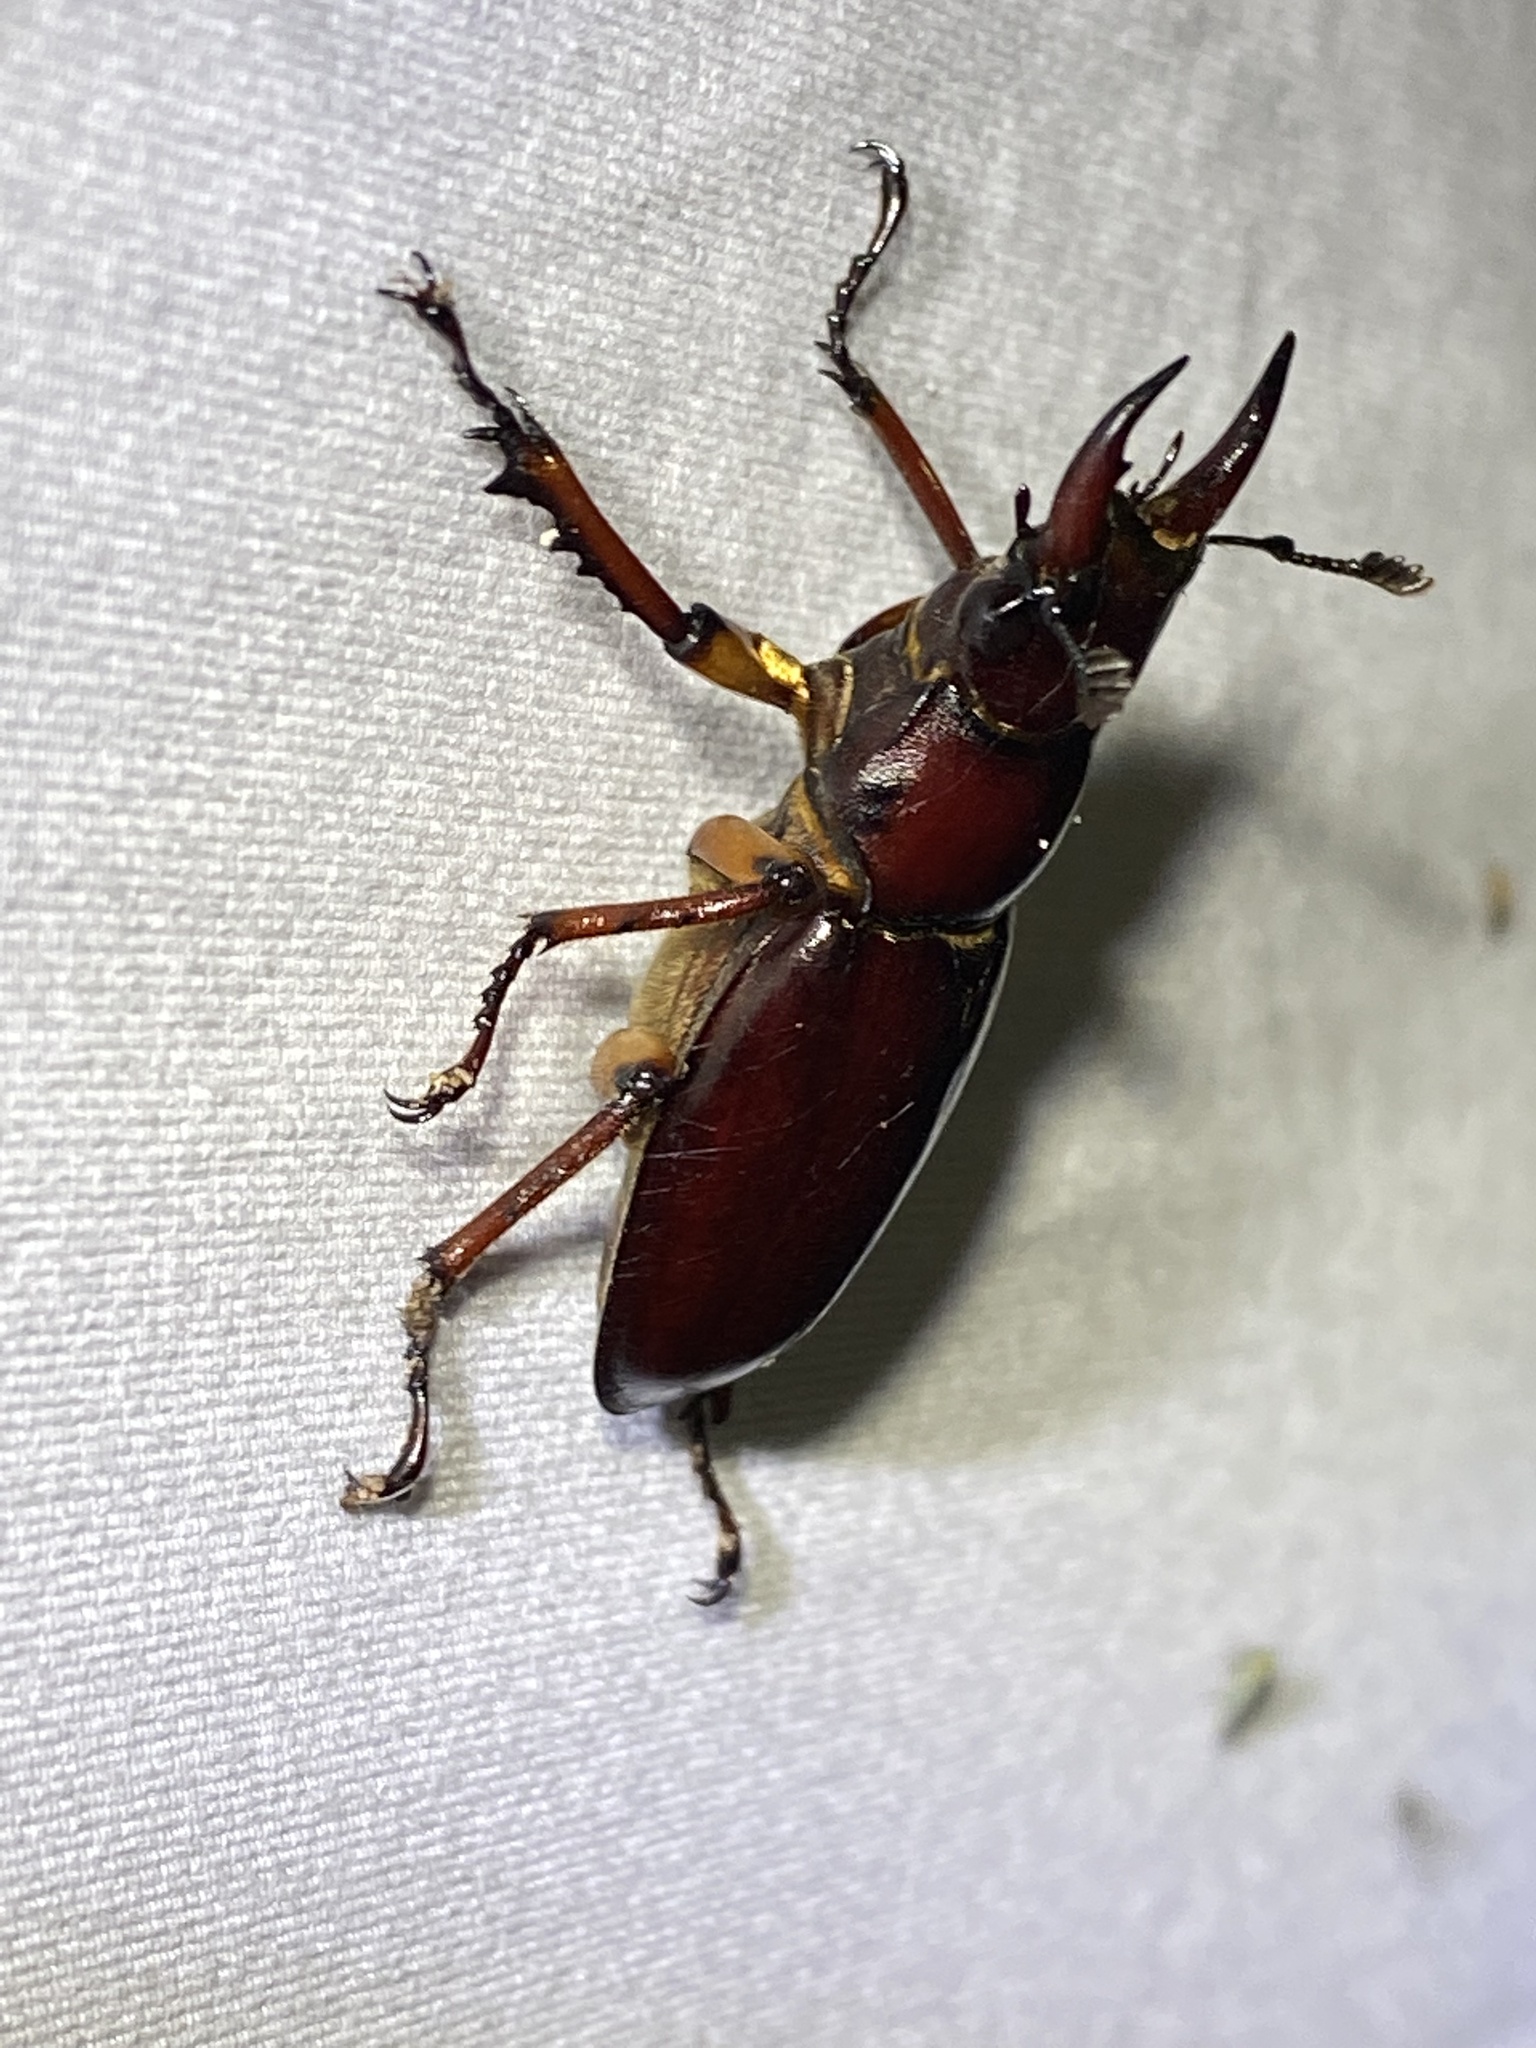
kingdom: Animalia
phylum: Arthropoda
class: Insecta
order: Coleoptera
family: Lucanidae
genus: Lucanus
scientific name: Lucanus capreolus
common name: Stag beetle
